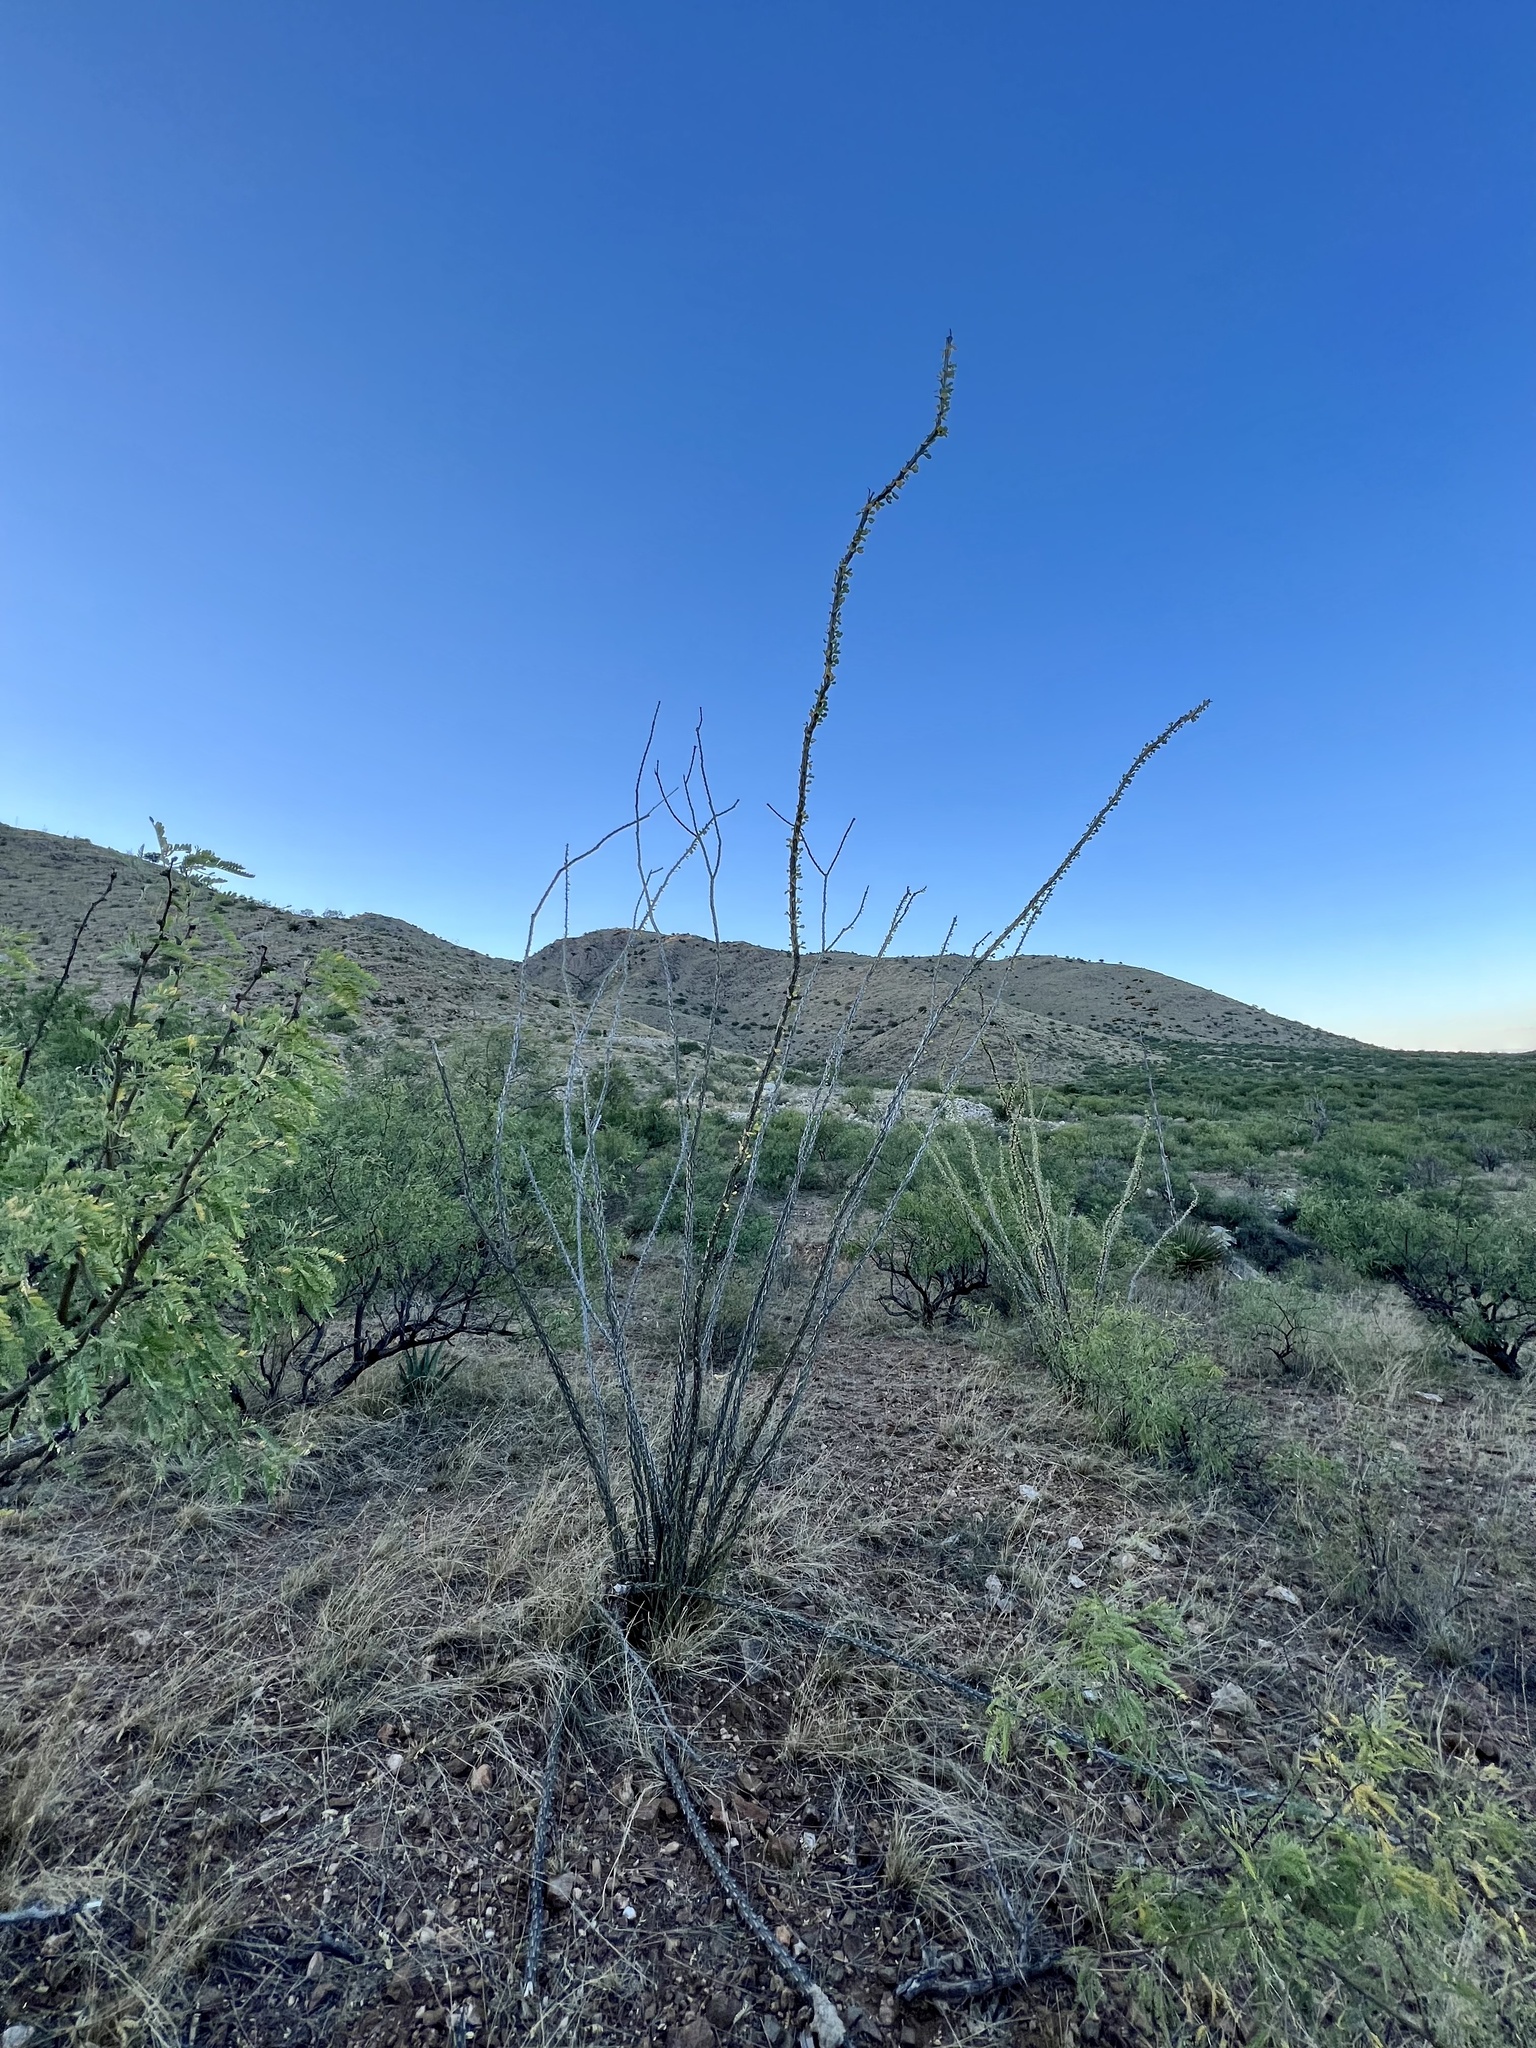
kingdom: Plantae
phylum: Tracheophyta
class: Magnoliopsida
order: Ericales
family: Fouquieriaceae
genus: Fouquieria
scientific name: Fouquieria splendens
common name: Vine-cactus
